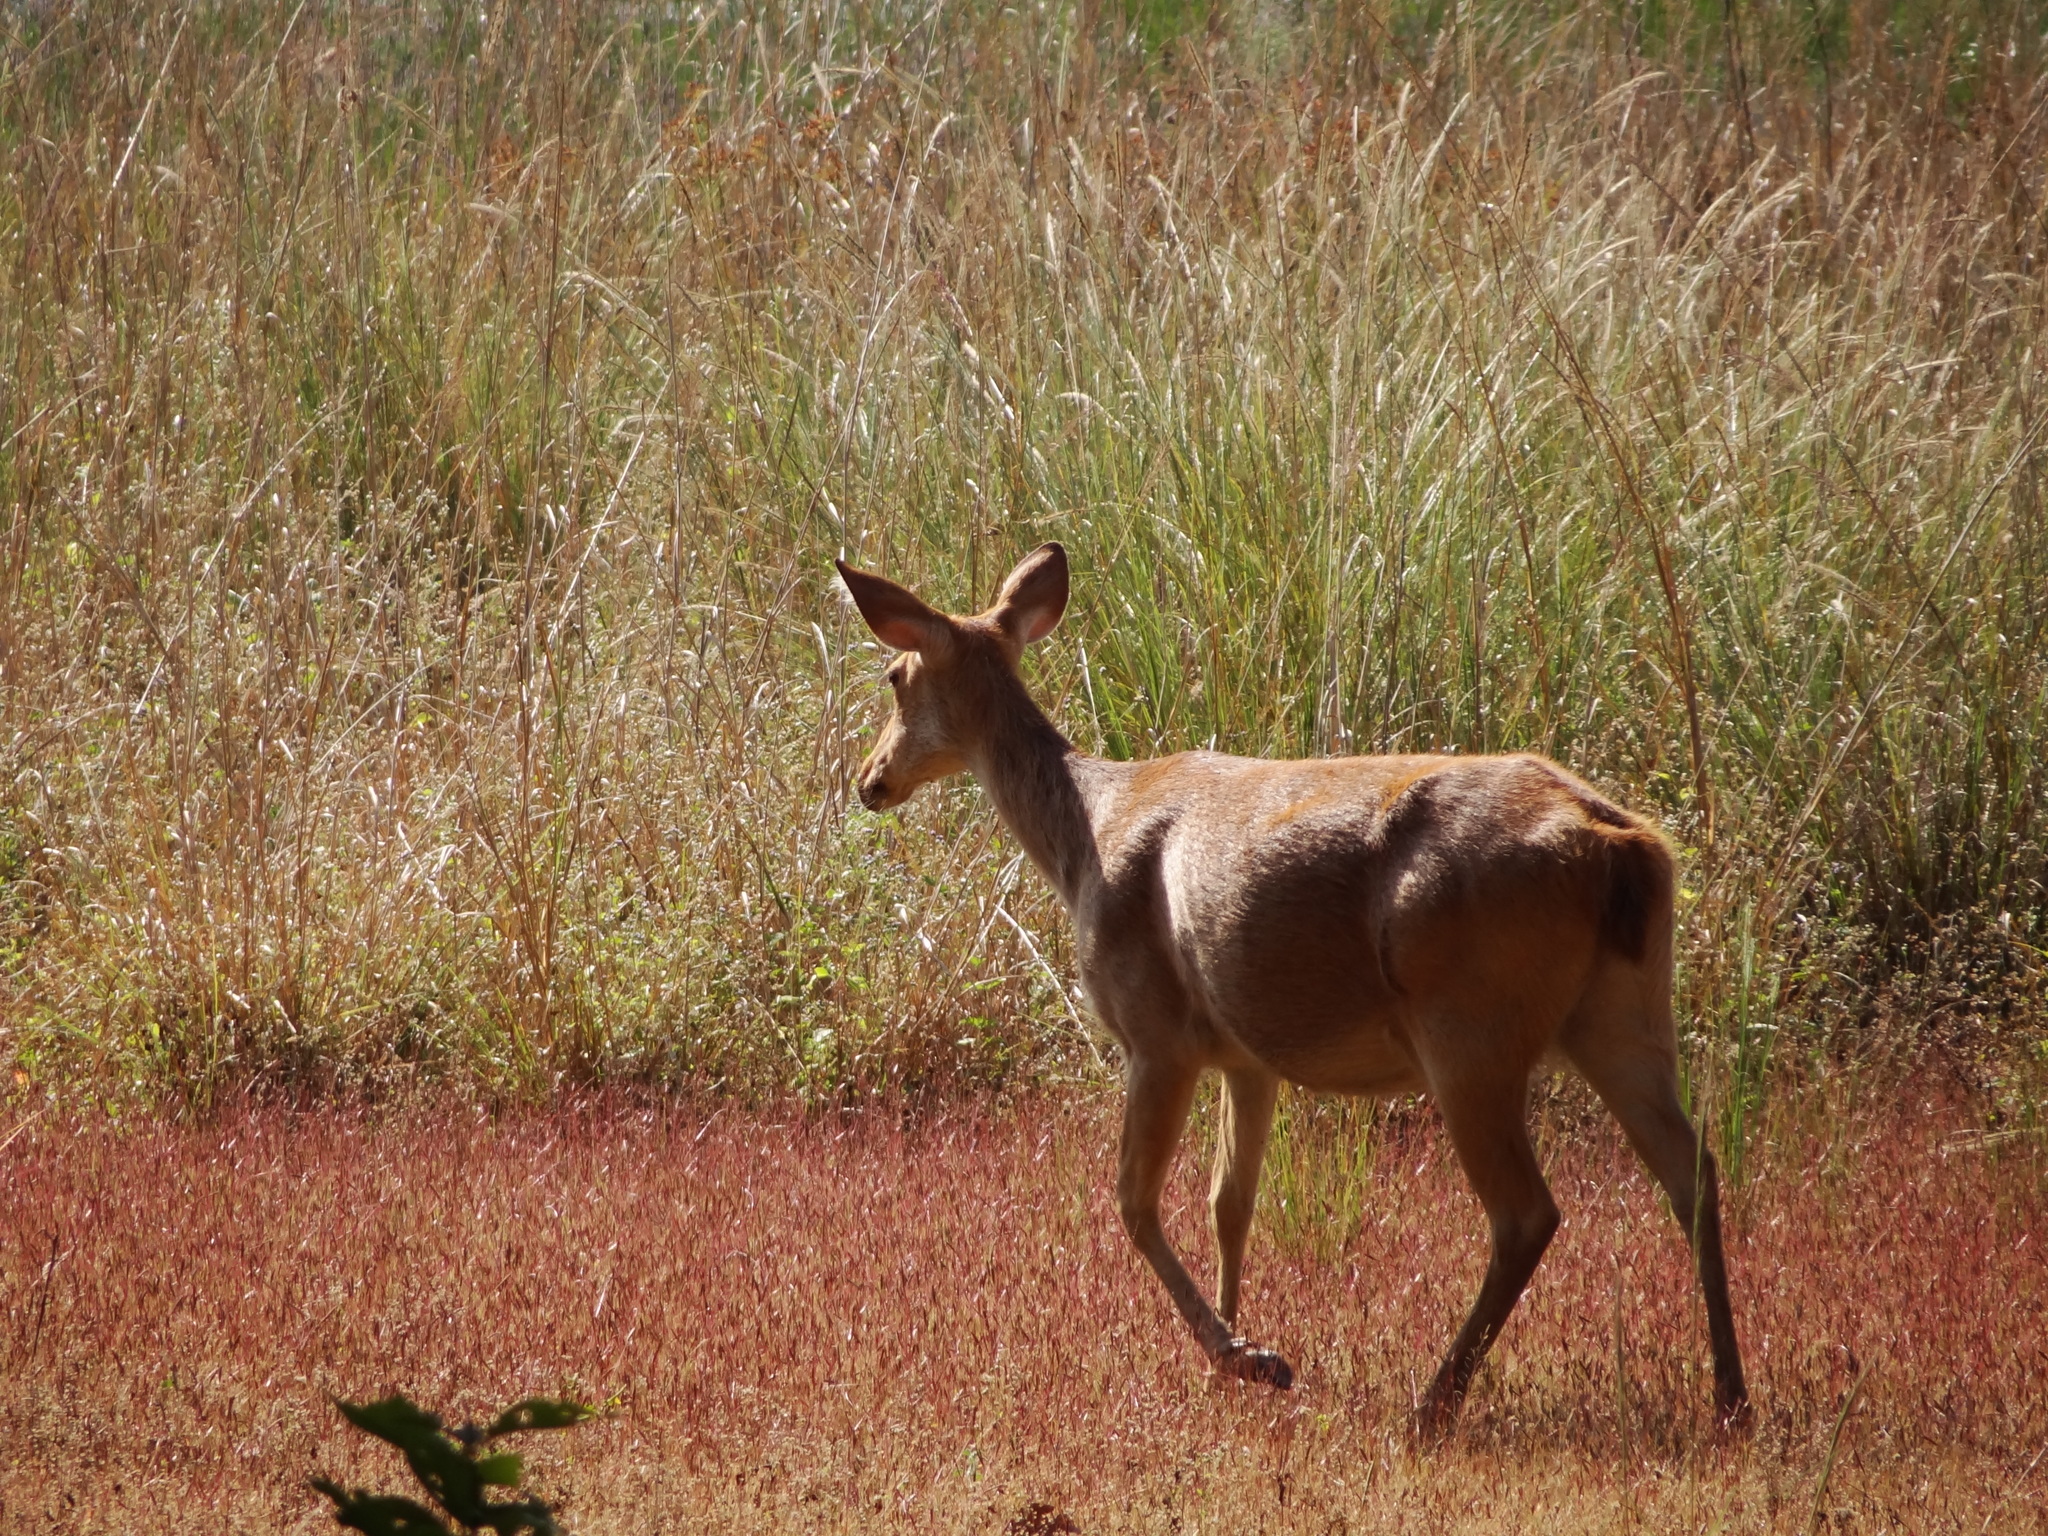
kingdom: Animalia
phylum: Chordata
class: Mammalia
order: Artiodactyla
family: Cervidae
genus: Rucervus
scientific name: Rucervus duvaucelii
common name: Barasingha
